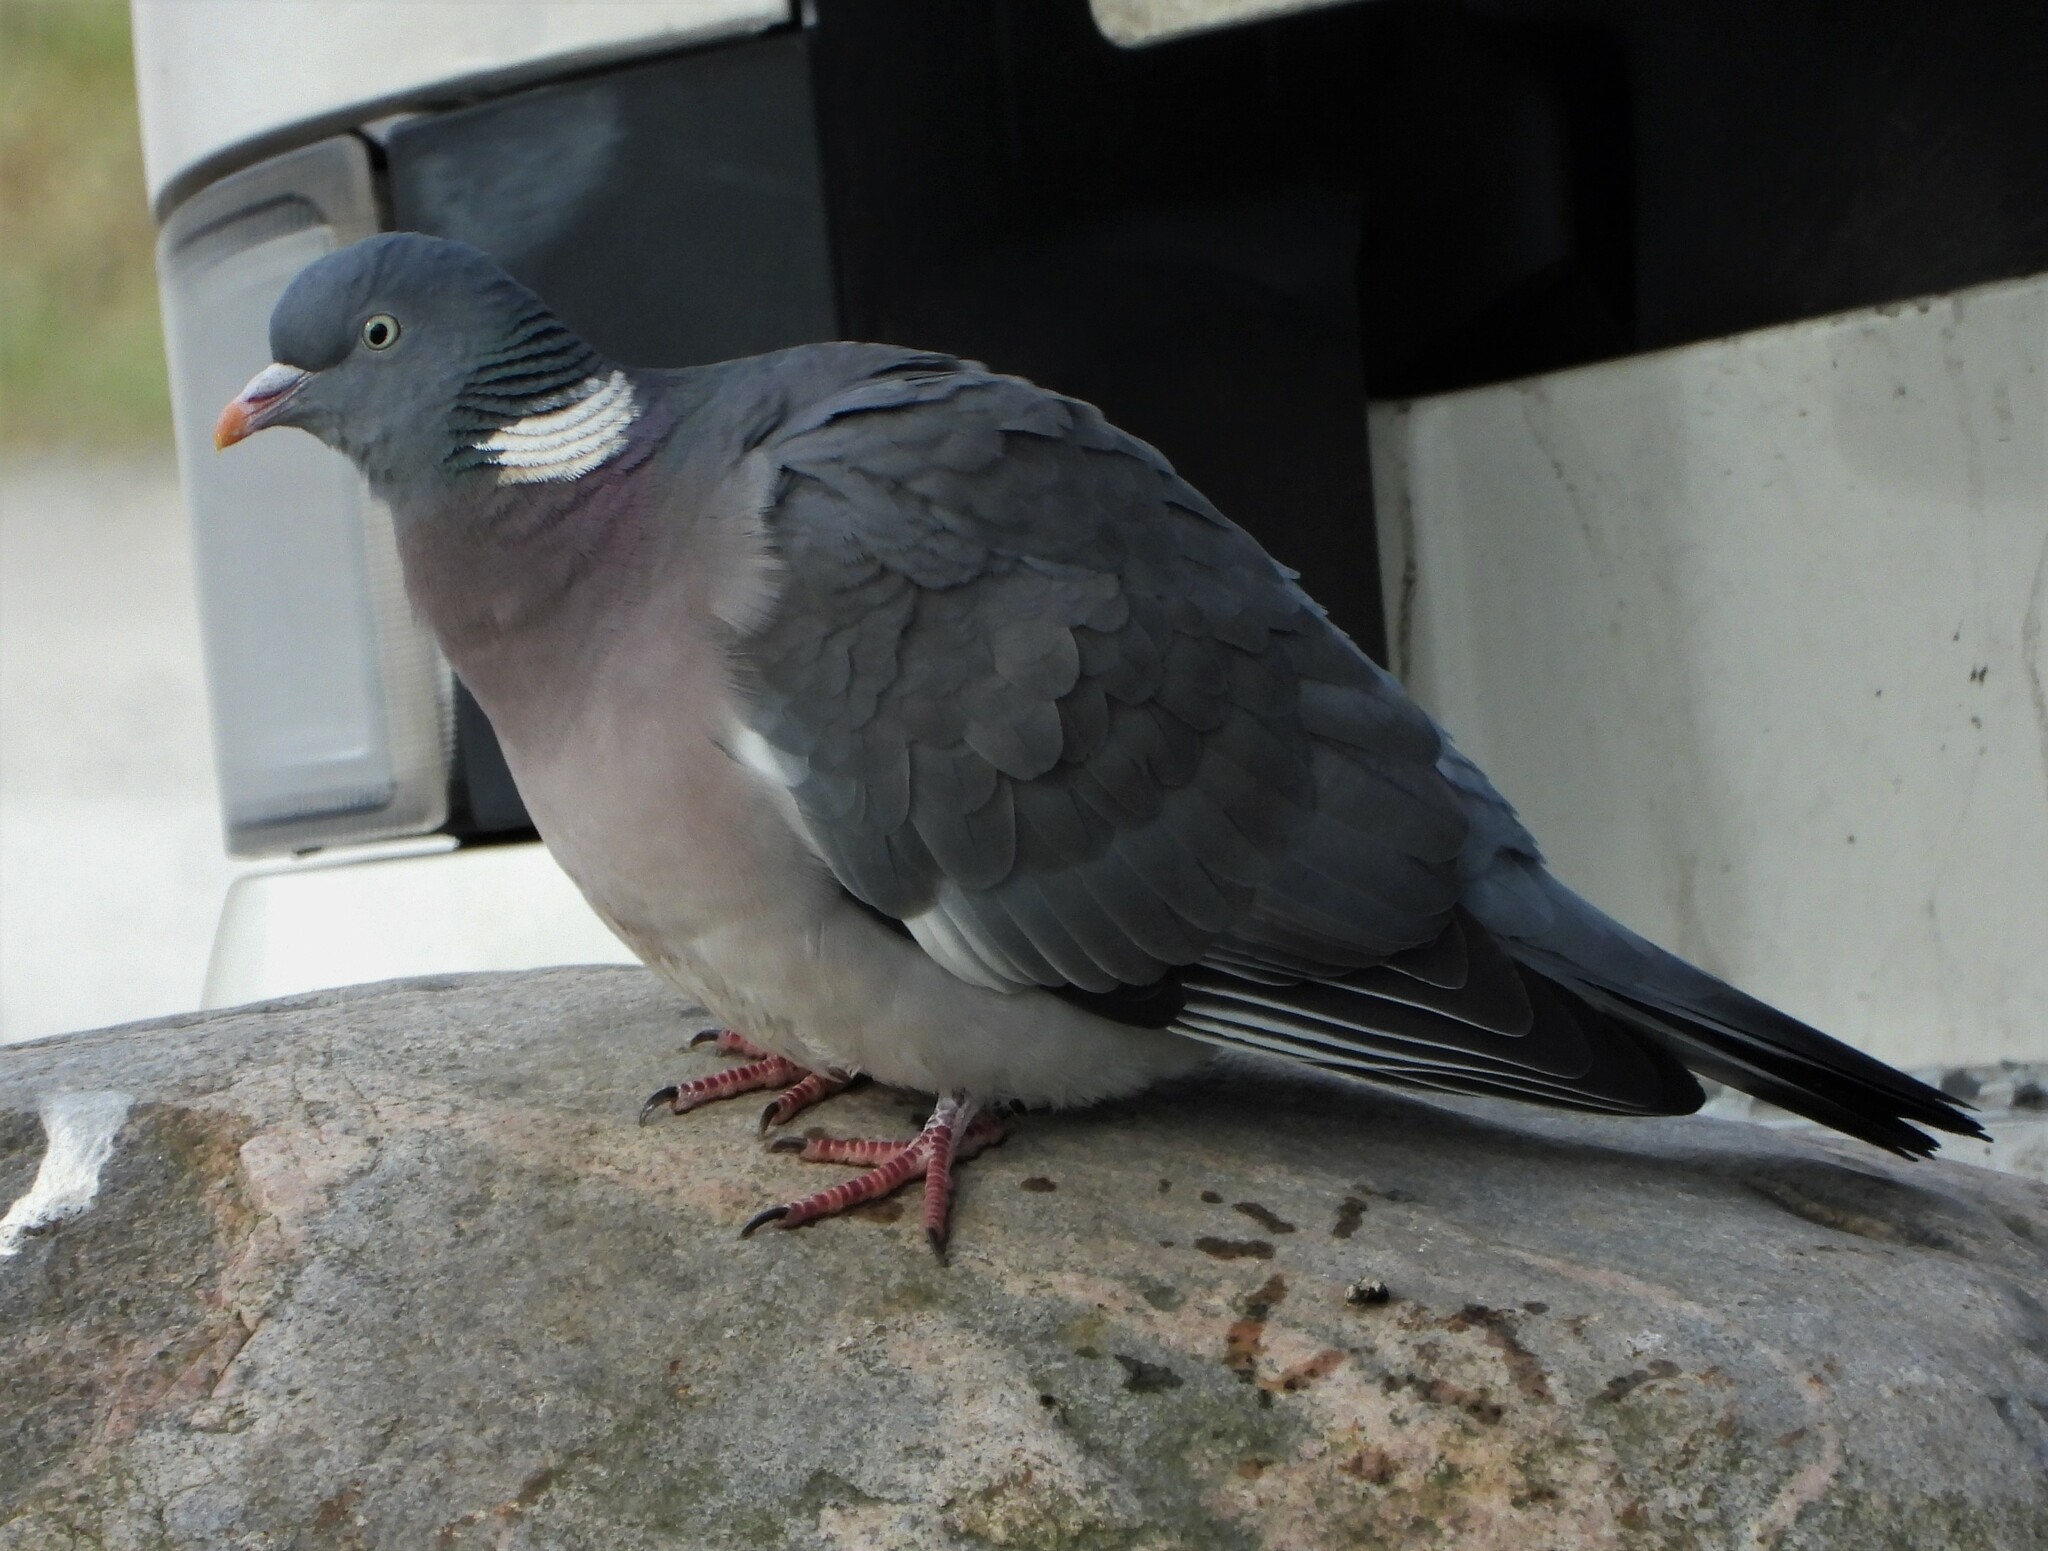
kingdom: Animalia
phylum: Chordata
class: Aves
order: Columbiformes
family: Columbidae
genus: Columba
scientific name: Columba palumbus
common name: Common wood pigeon
